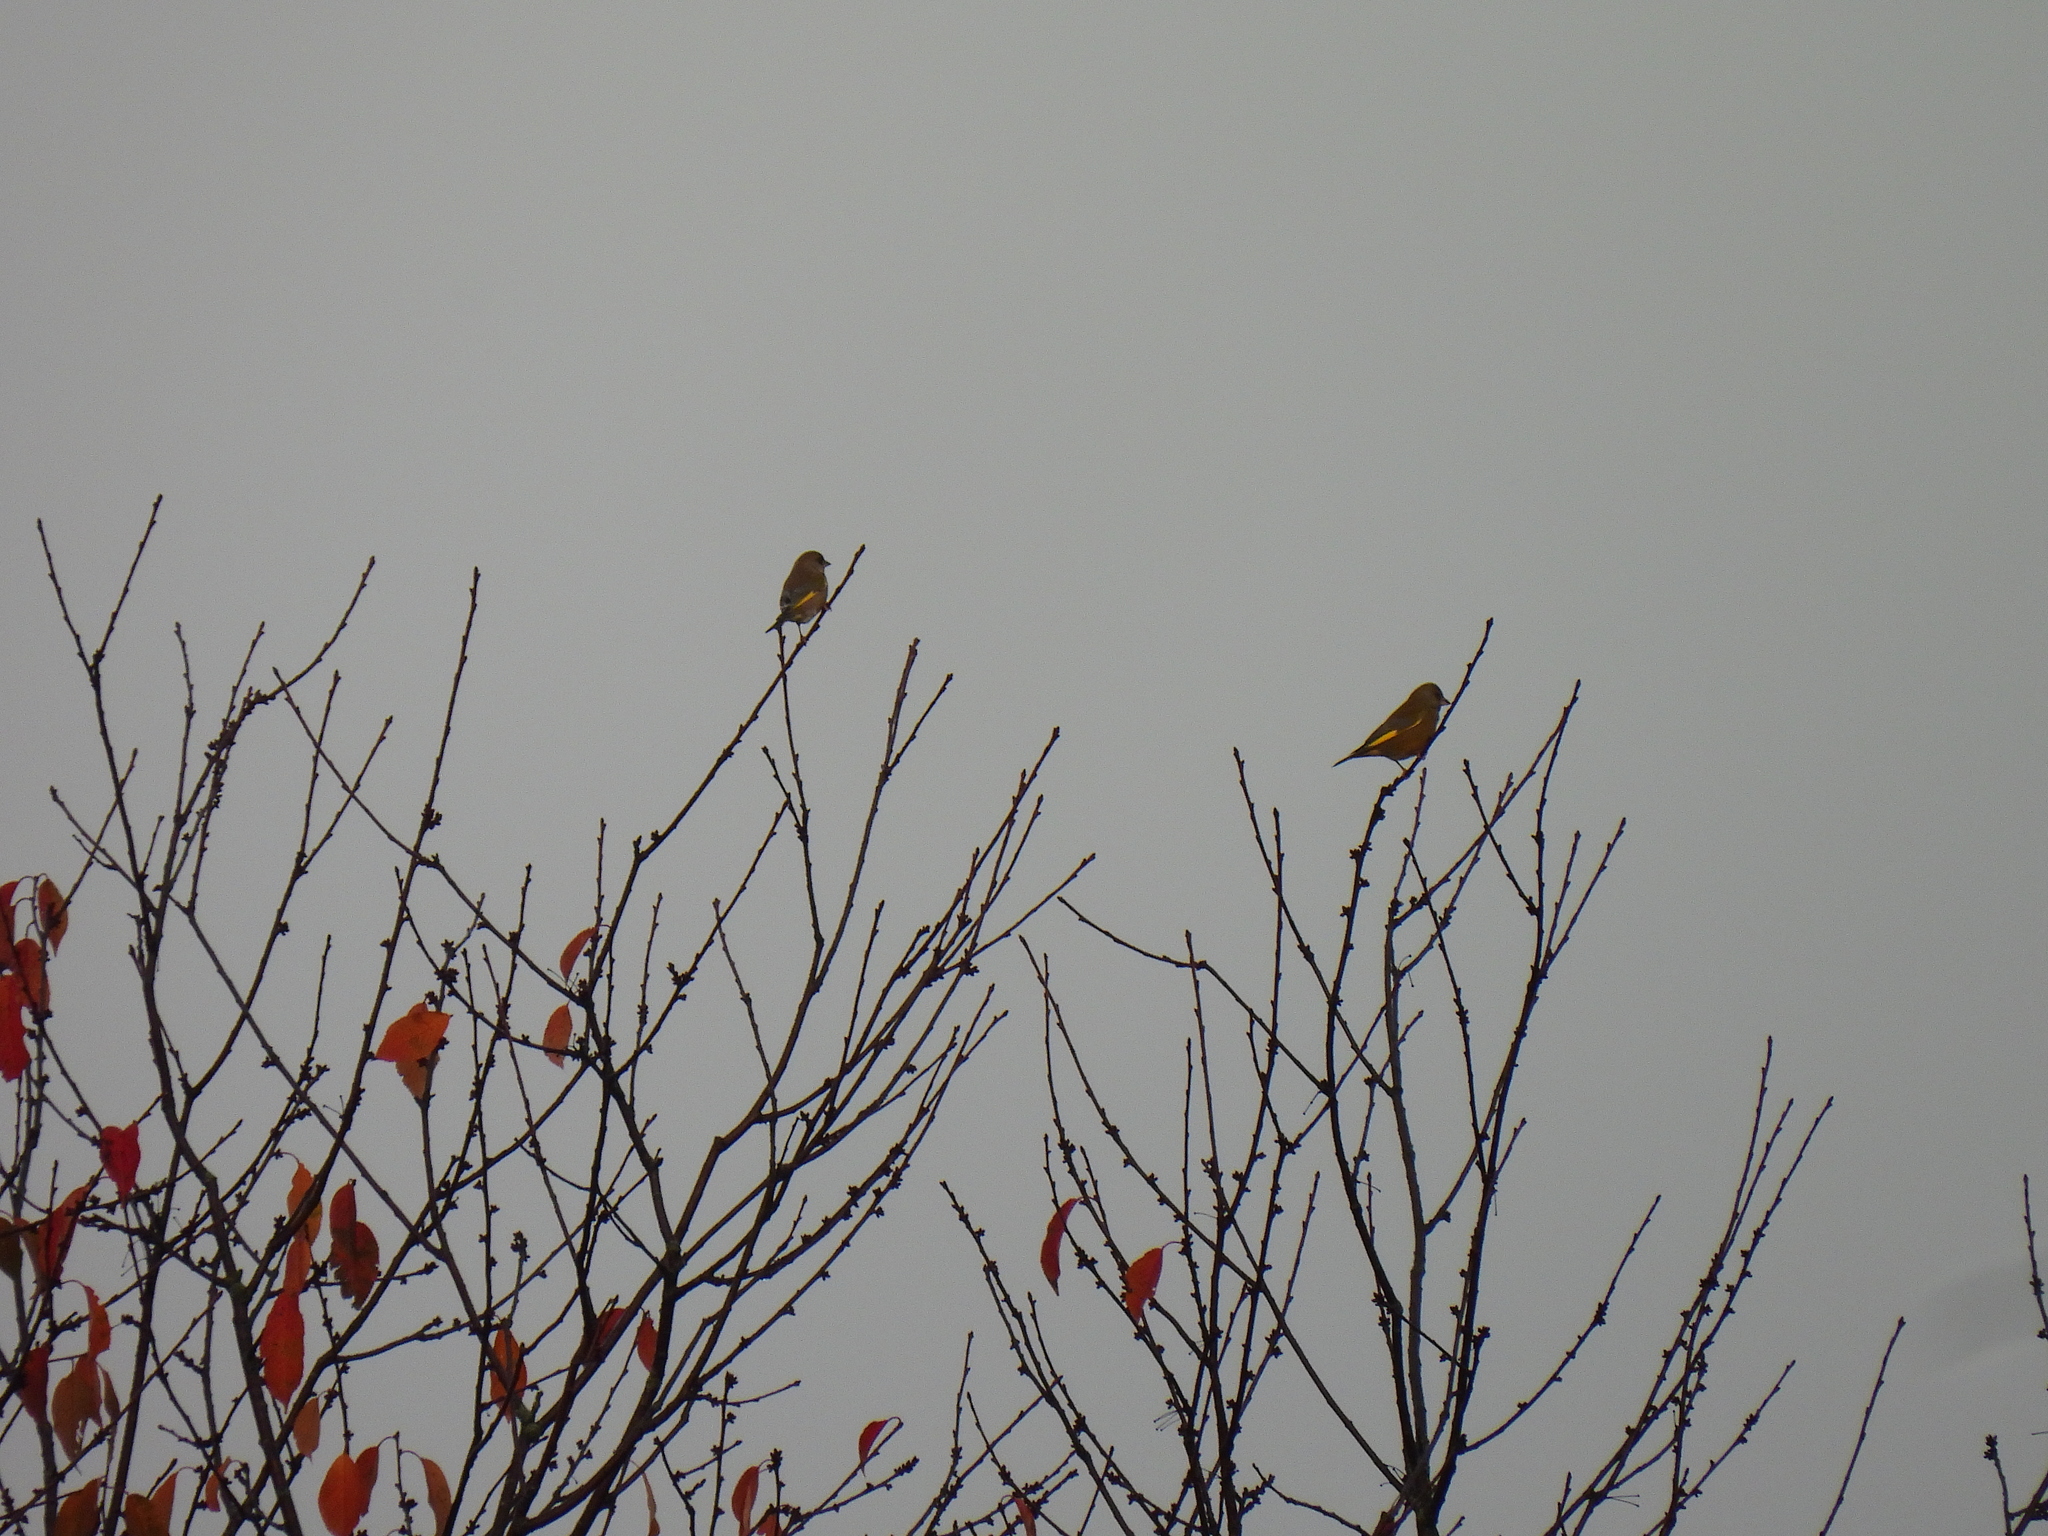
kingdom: Plantae
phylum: Tracheophyta
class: Liliopsida
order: Poales
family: Poaceae
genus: Chloris
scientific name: Chloris chloris
